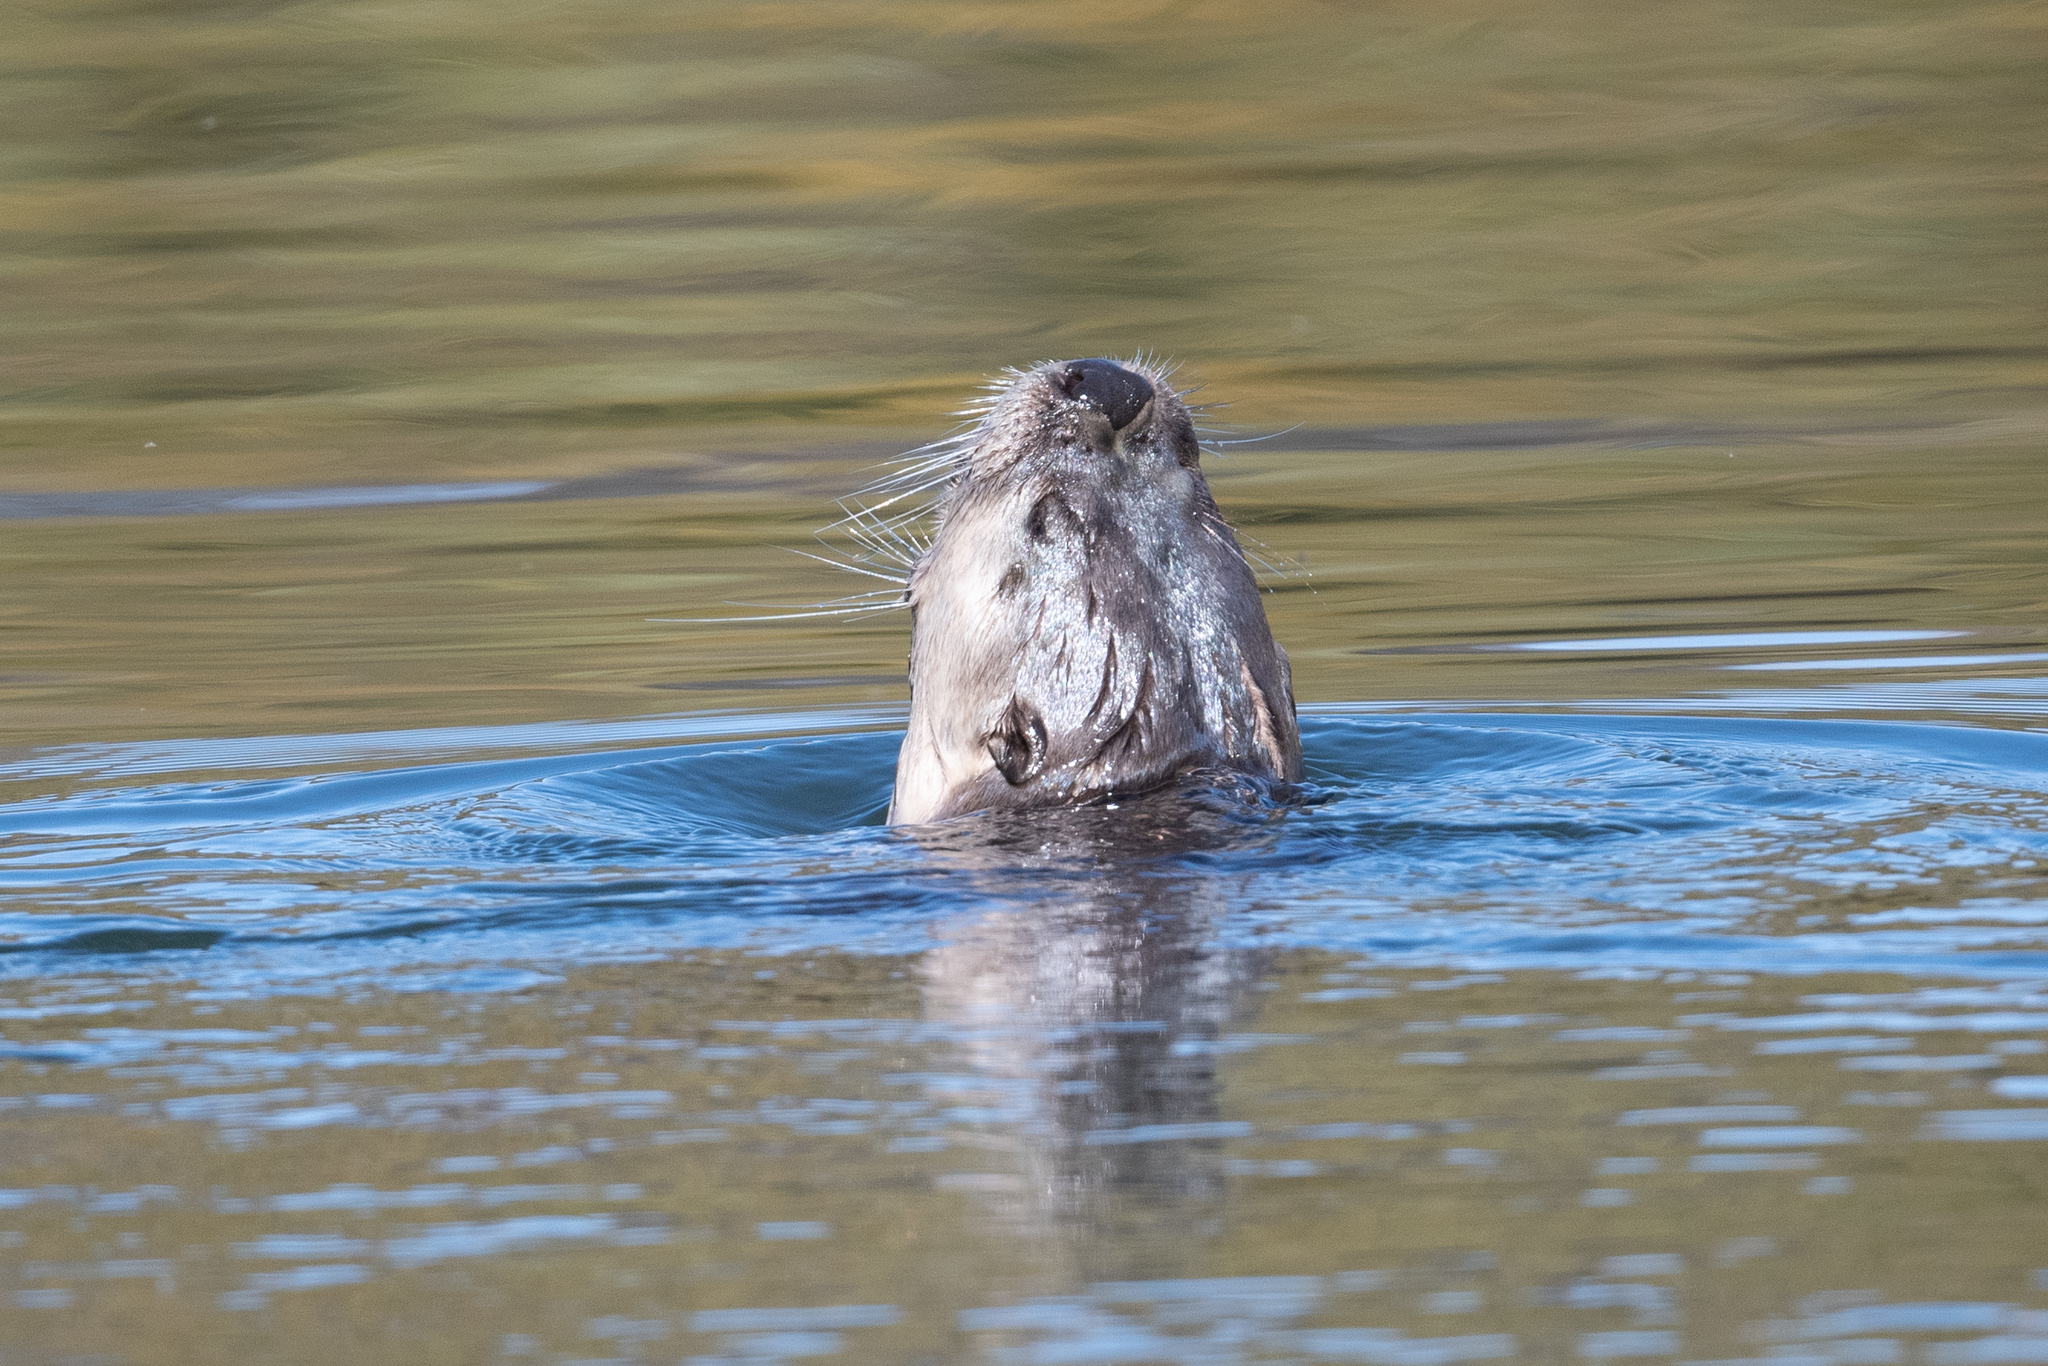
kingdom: Animalia
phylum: Chordata
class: Mammalia
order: Carnivora
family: Mustelidae
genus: Lontra
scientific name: Lontra canadensis
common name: North american river otter
